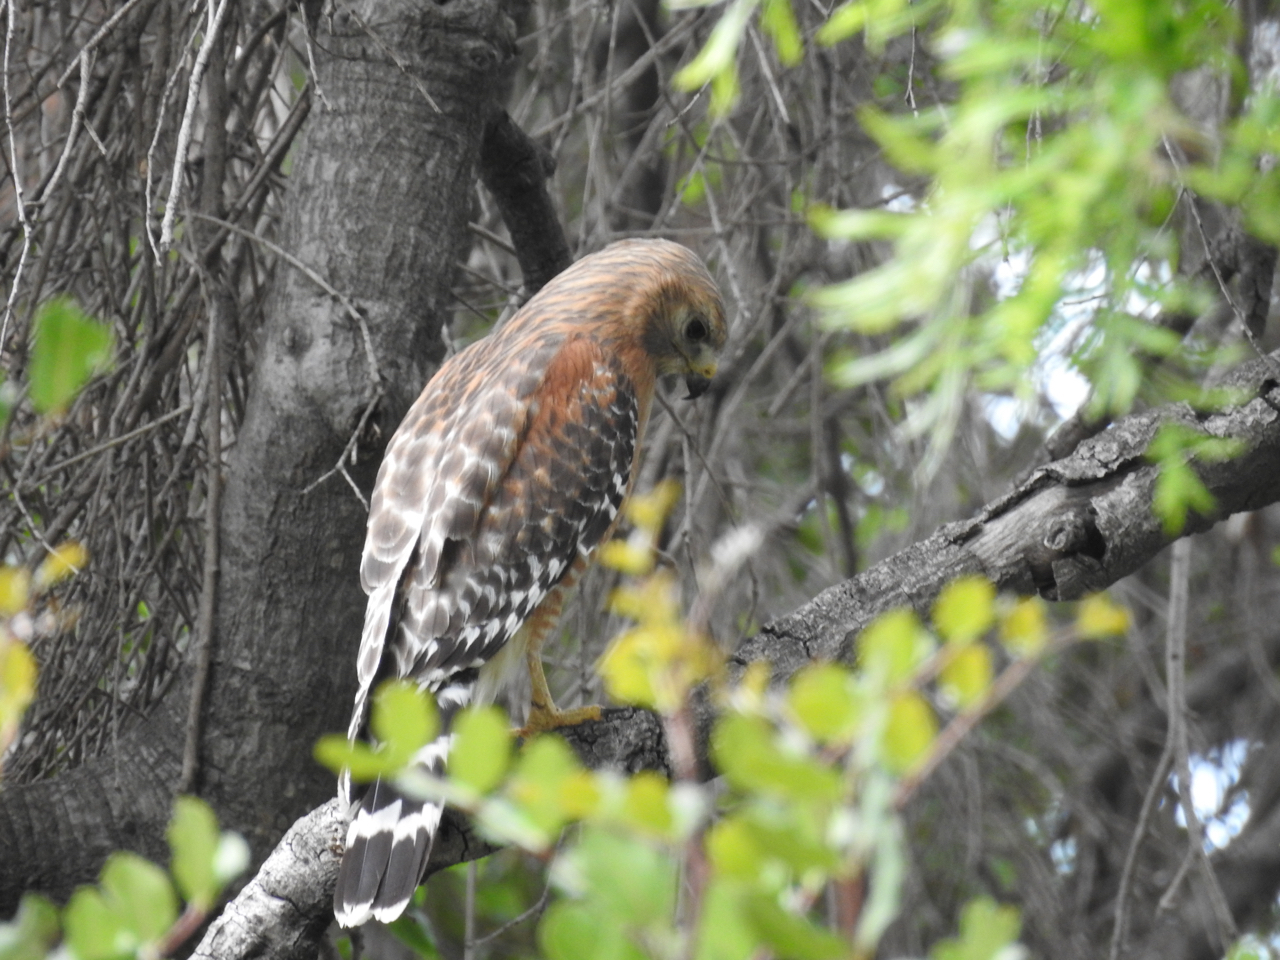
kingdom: Animalia
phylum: Chordata
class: Aves
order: Accipitriformes
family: Accipitridae
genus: Buteo
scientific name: Buteo lineatus
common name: Red-shouldered hawk
